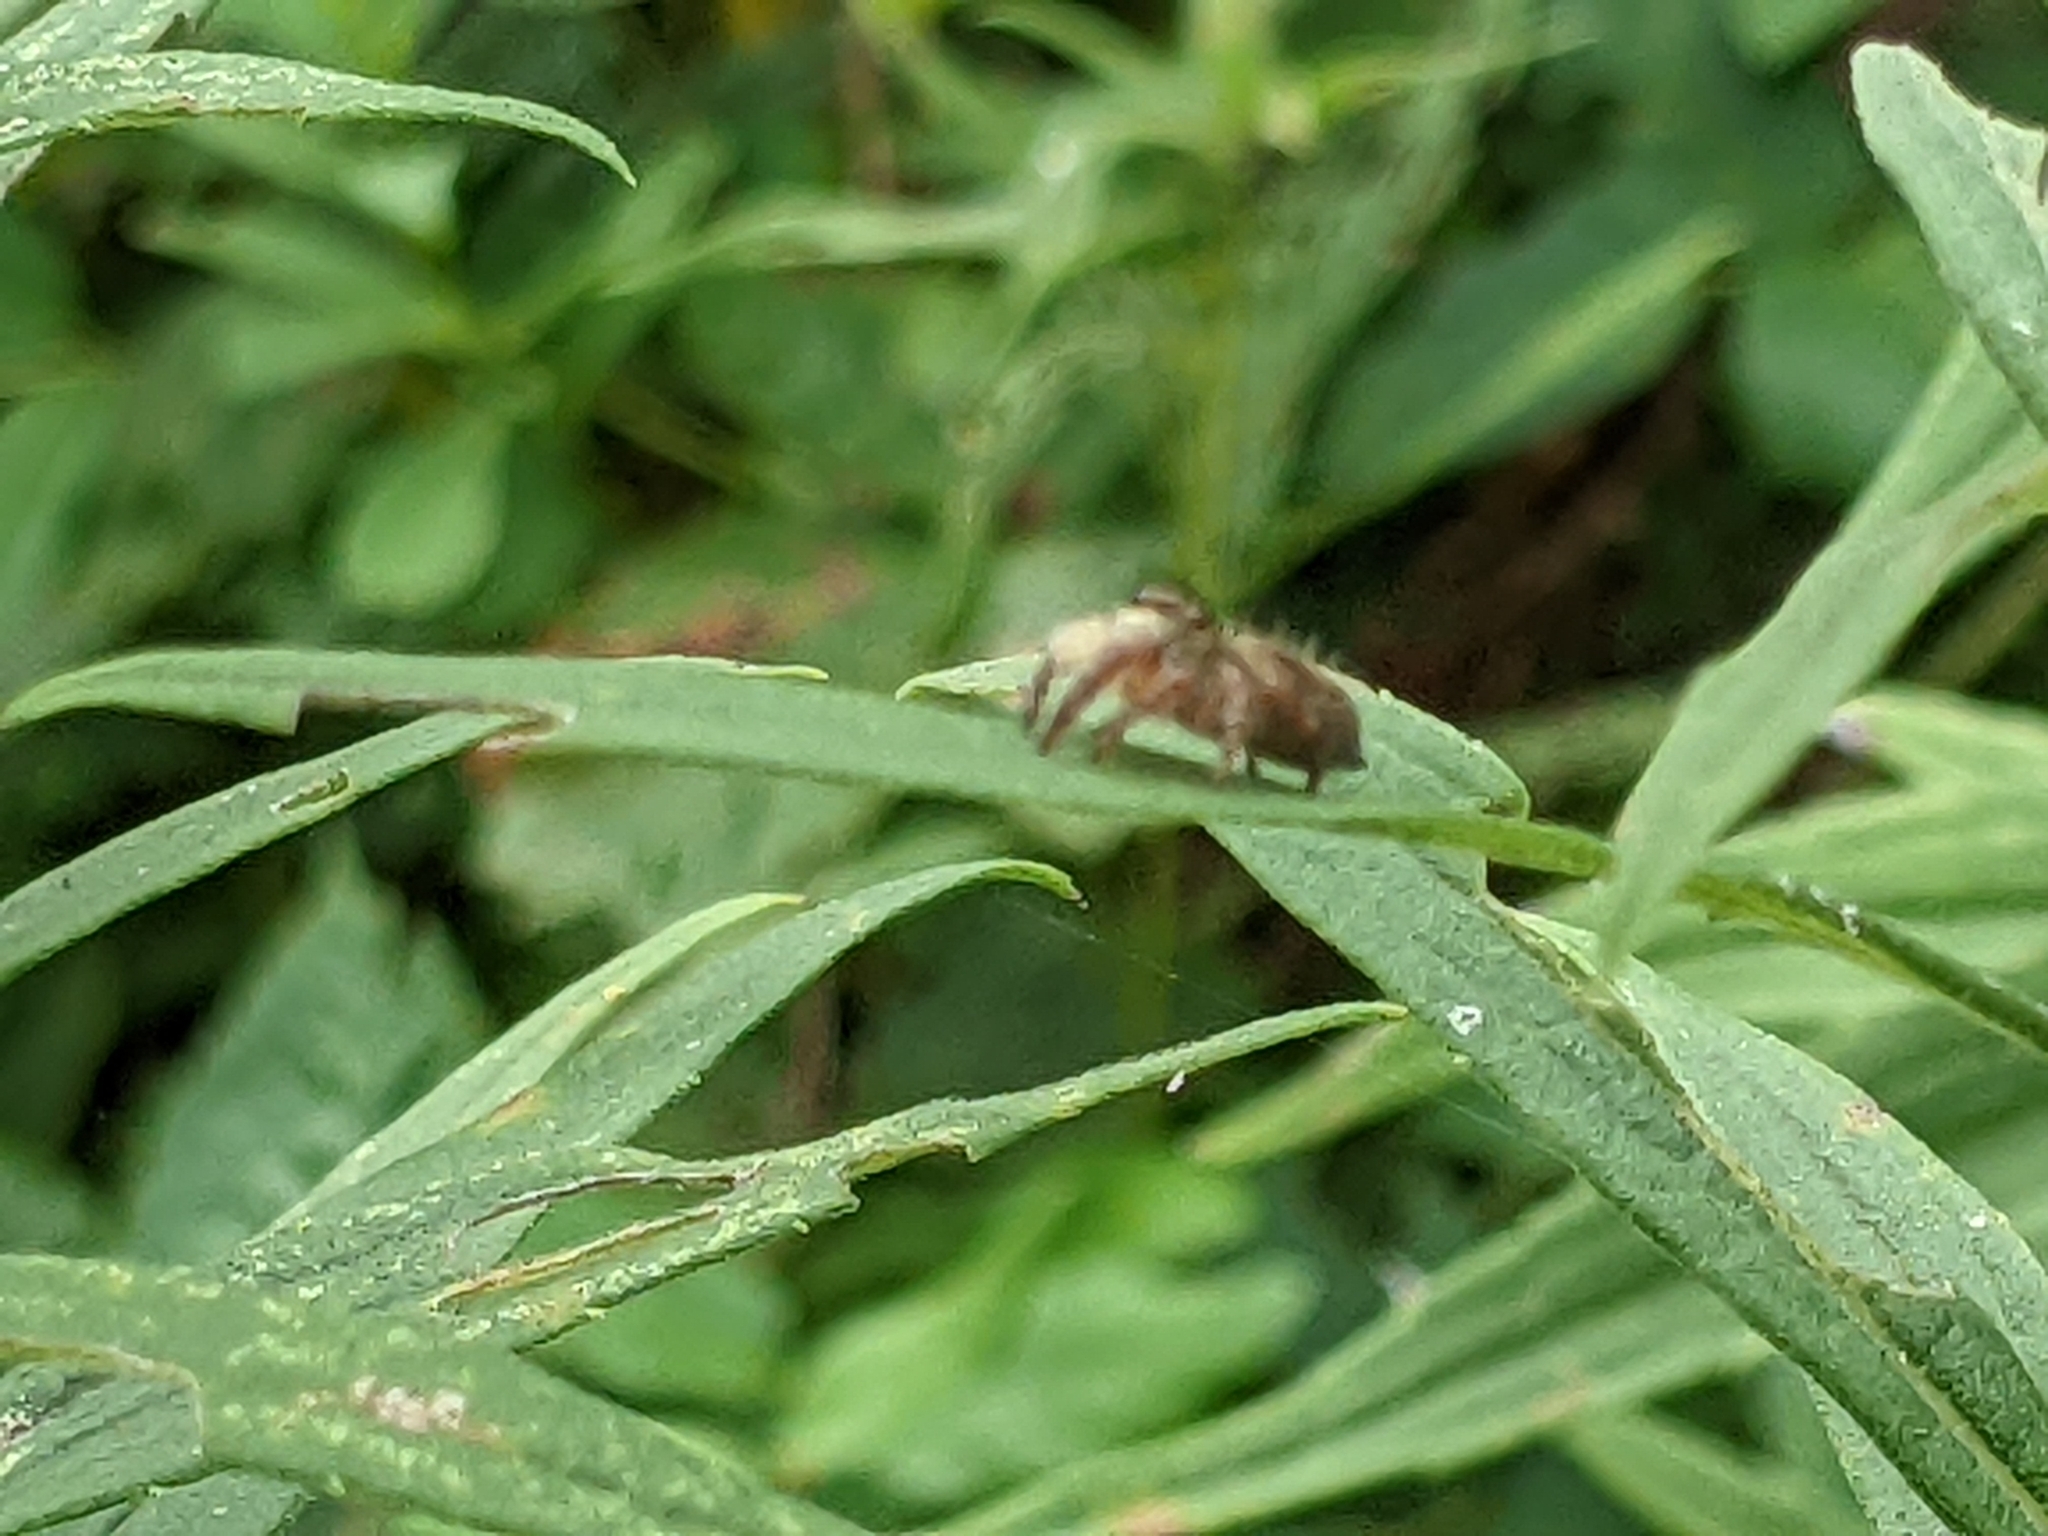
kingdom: Animalia
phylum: Arthropoda
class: Arachnida
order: Araneae
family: Salticidae
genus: Phidippus
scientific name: Phidippus princeps
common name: Grayish jumping spider
